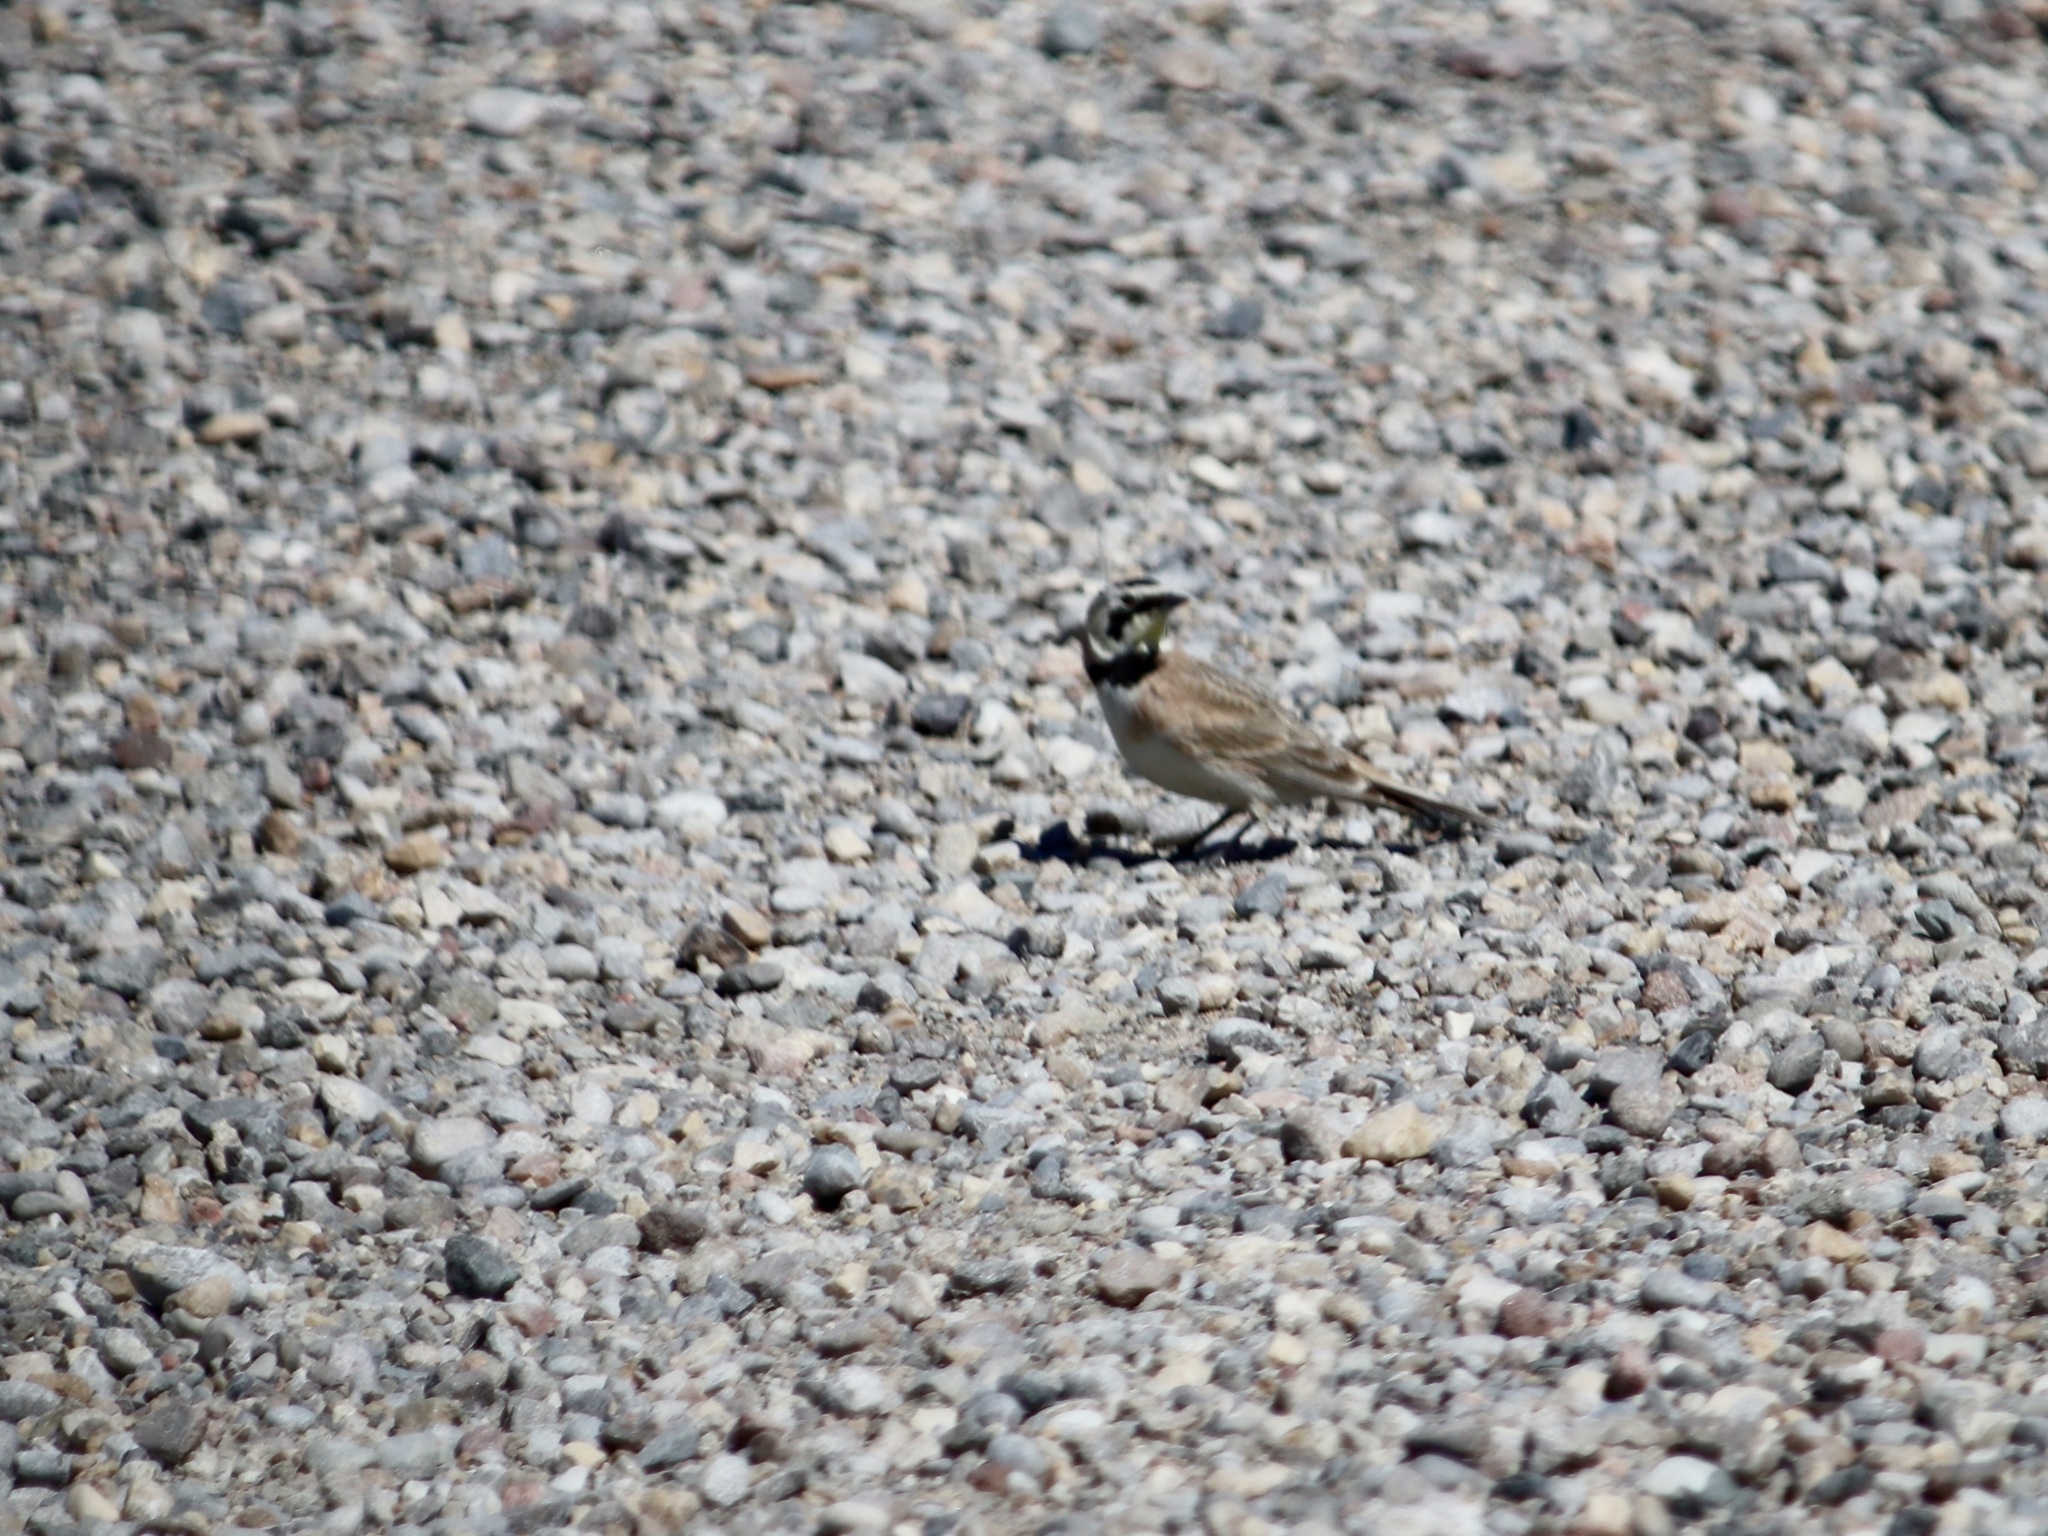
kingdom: Animalia
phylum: Chordata
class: Aves
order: Passeriformes
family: Alaudidae
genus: Eremophila
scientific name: Eremophila alpestris
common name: Horned lark
